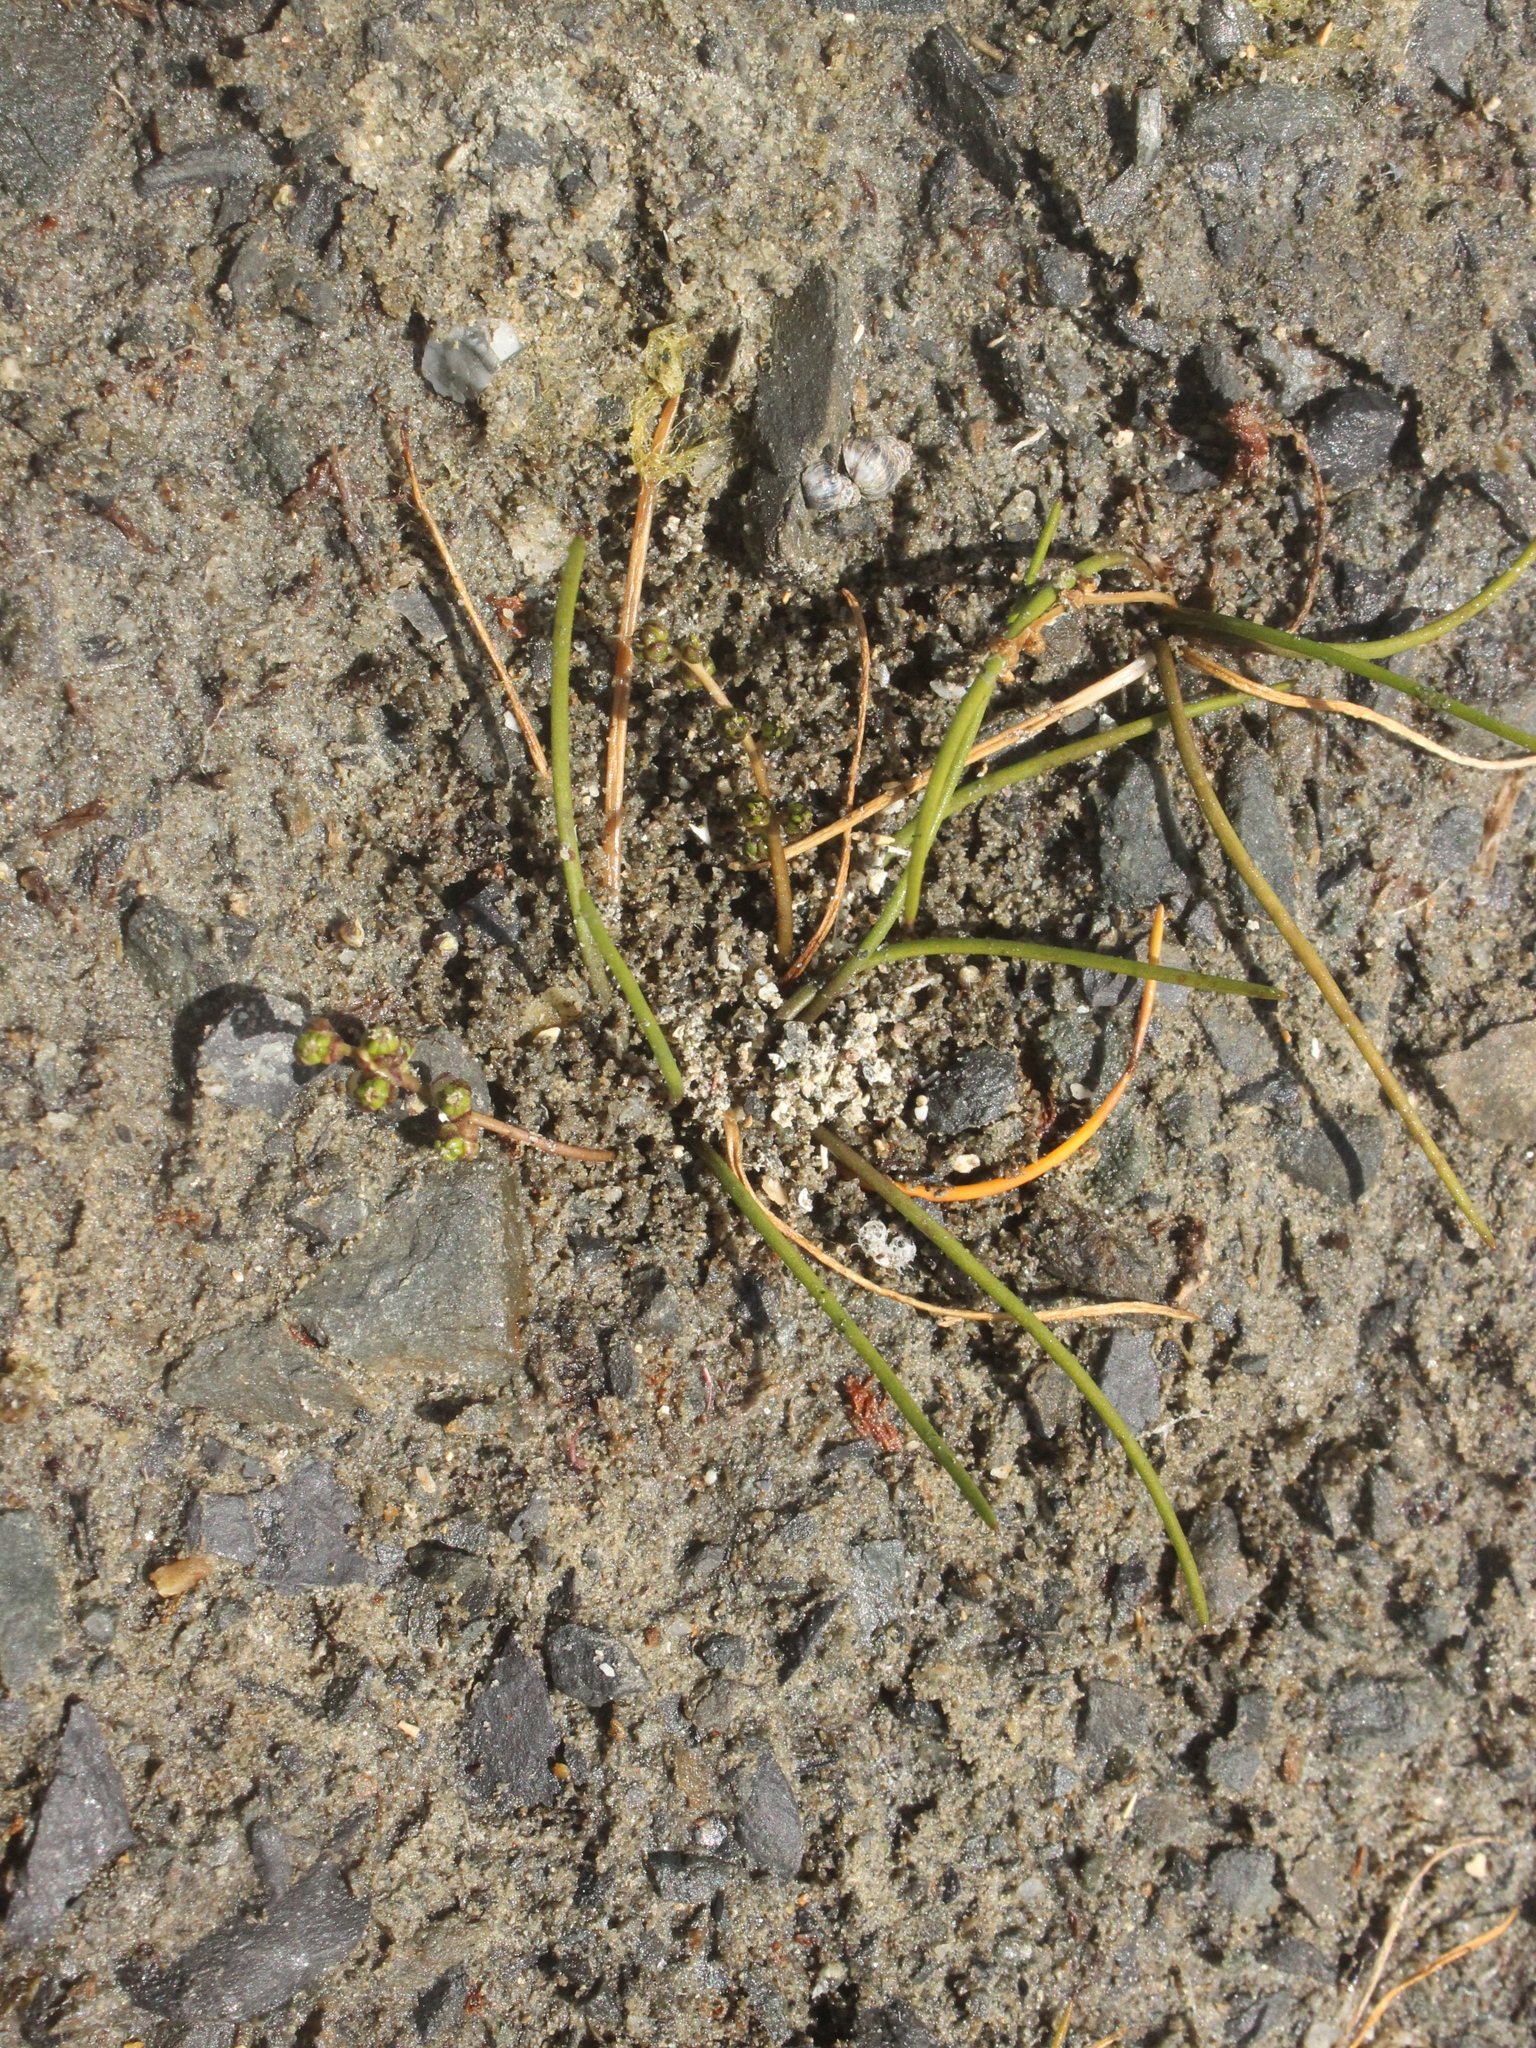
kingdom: Plantae
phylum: Tracheophyta
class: Liliopsida
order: Alismatales
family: Juncaginaceae
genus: Triglochin
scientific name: Triglochin striata
